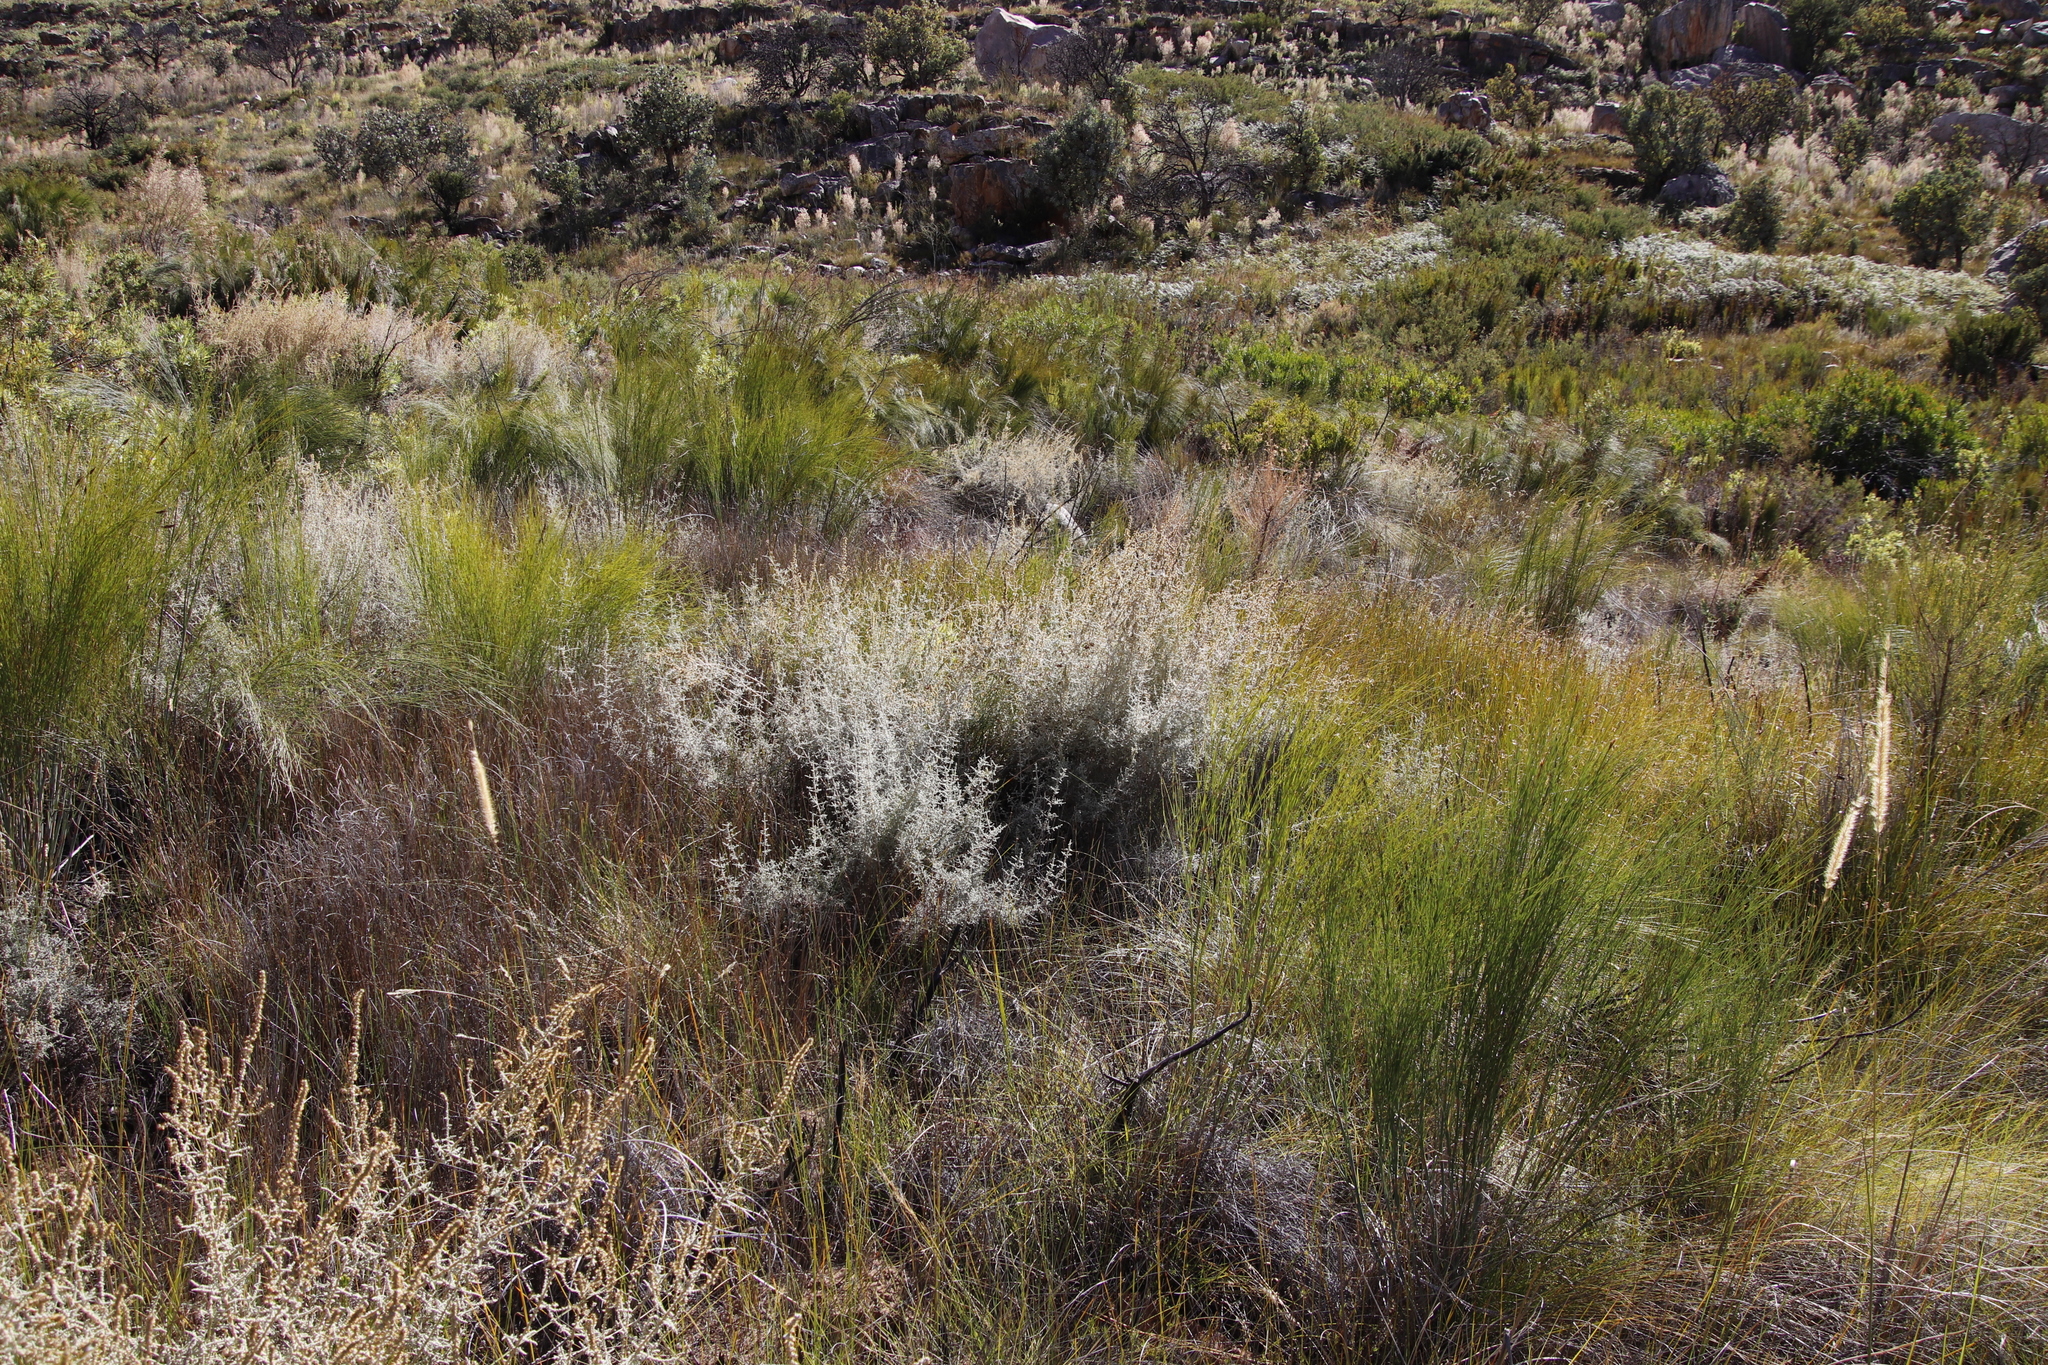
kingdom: Plantae
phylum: Tracheophyta
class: Magnoliopsida
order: Asterales
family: Asteraceae
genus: Seriphium
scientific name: Seriphium plumosum
